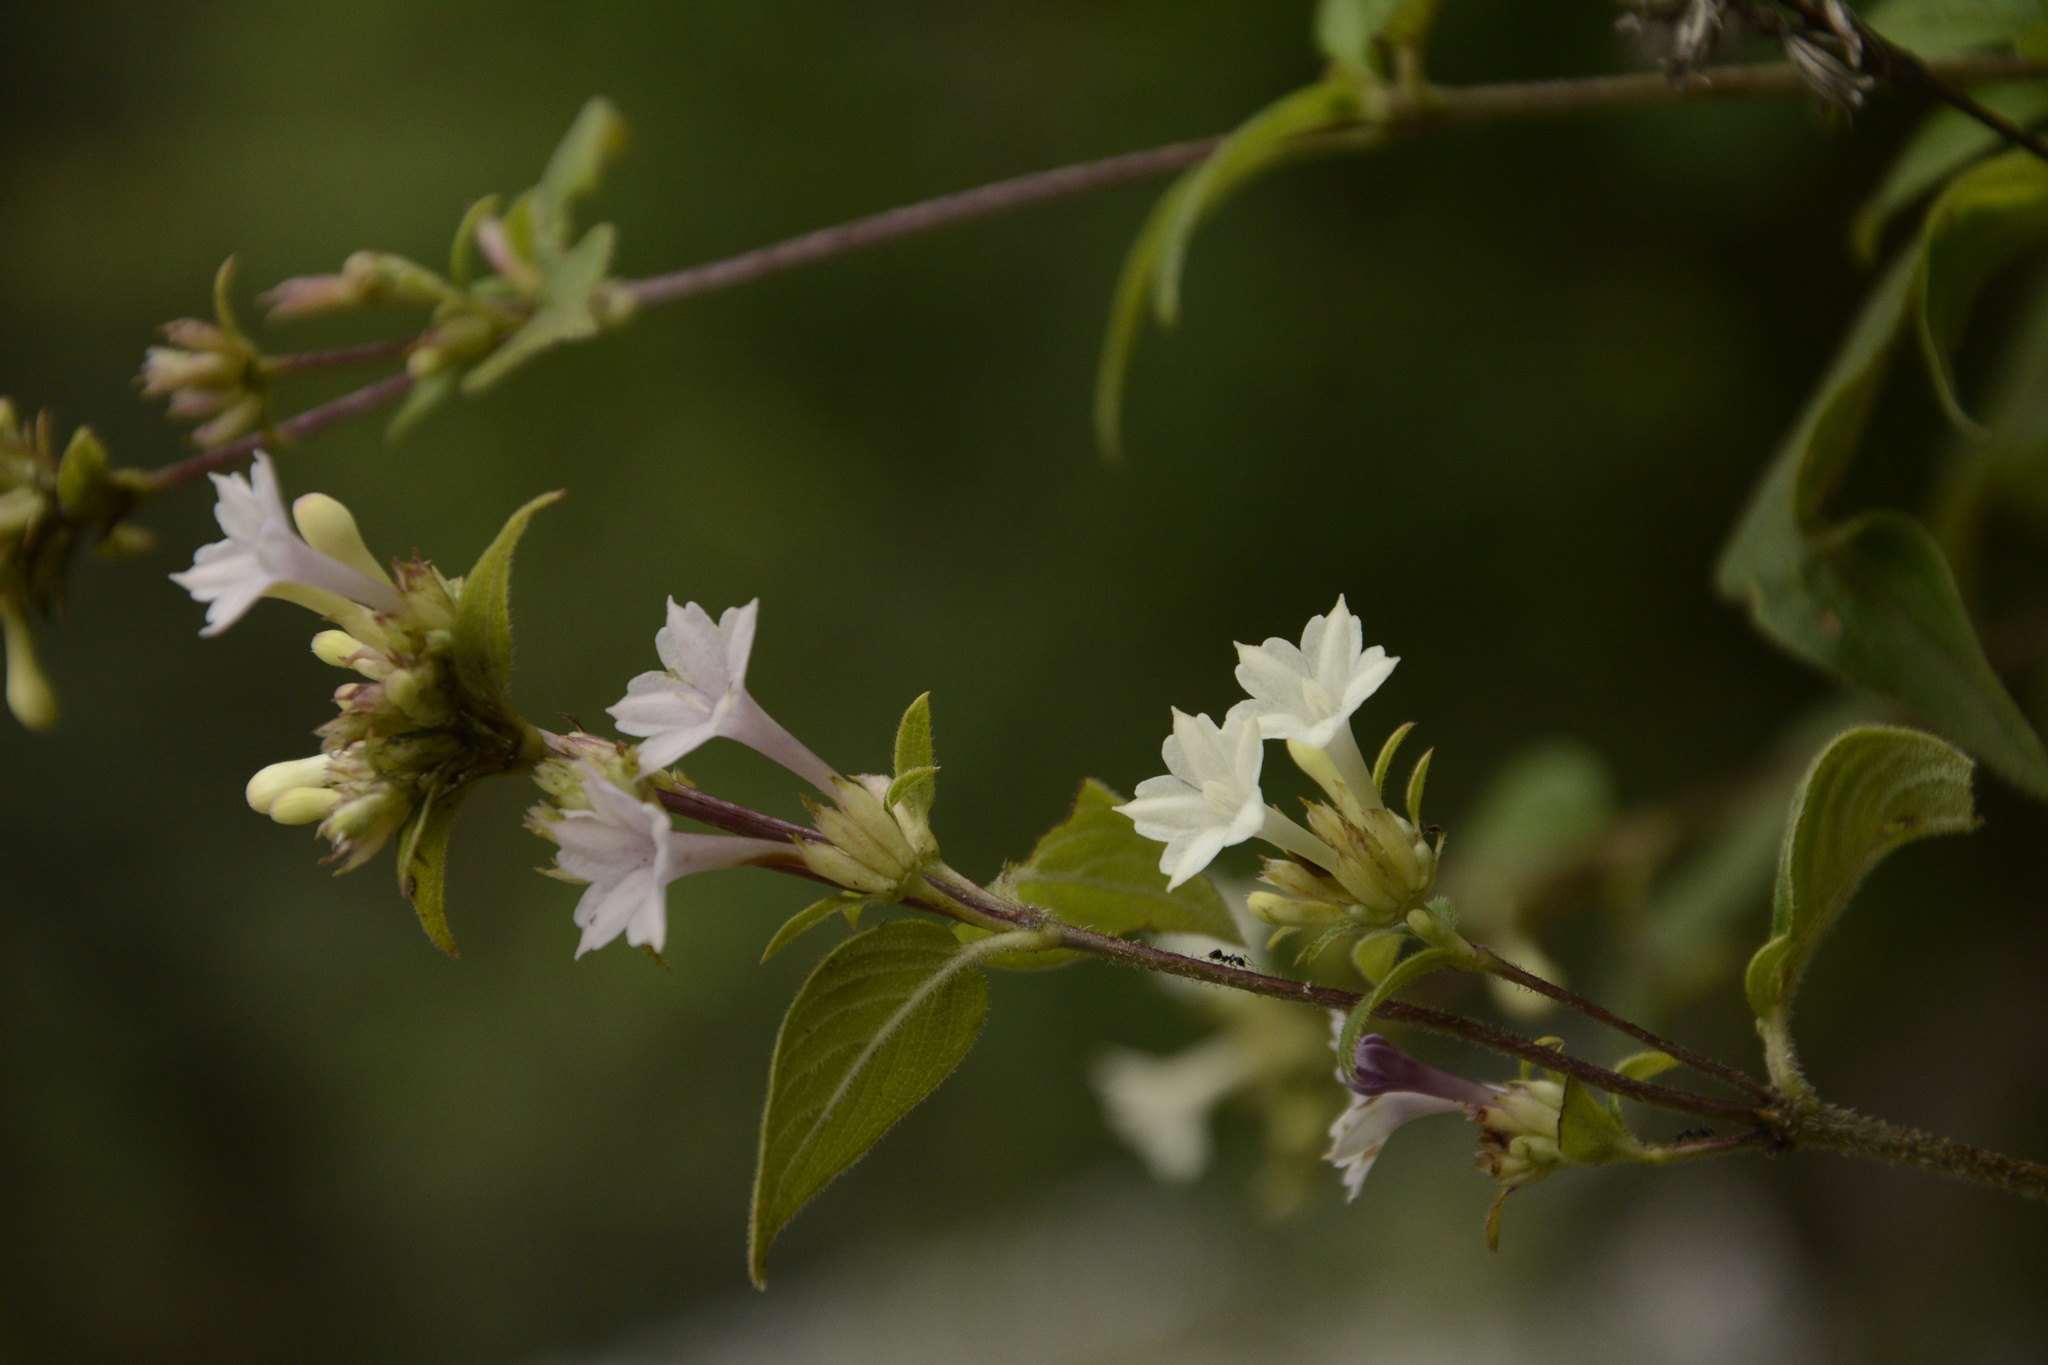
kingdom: Plantae
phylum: Tracheophyta
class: Magnoliopsida
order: Gentianales
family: Rubiaceae
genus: Leptodermis
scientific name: Leptodermis lanceolata
